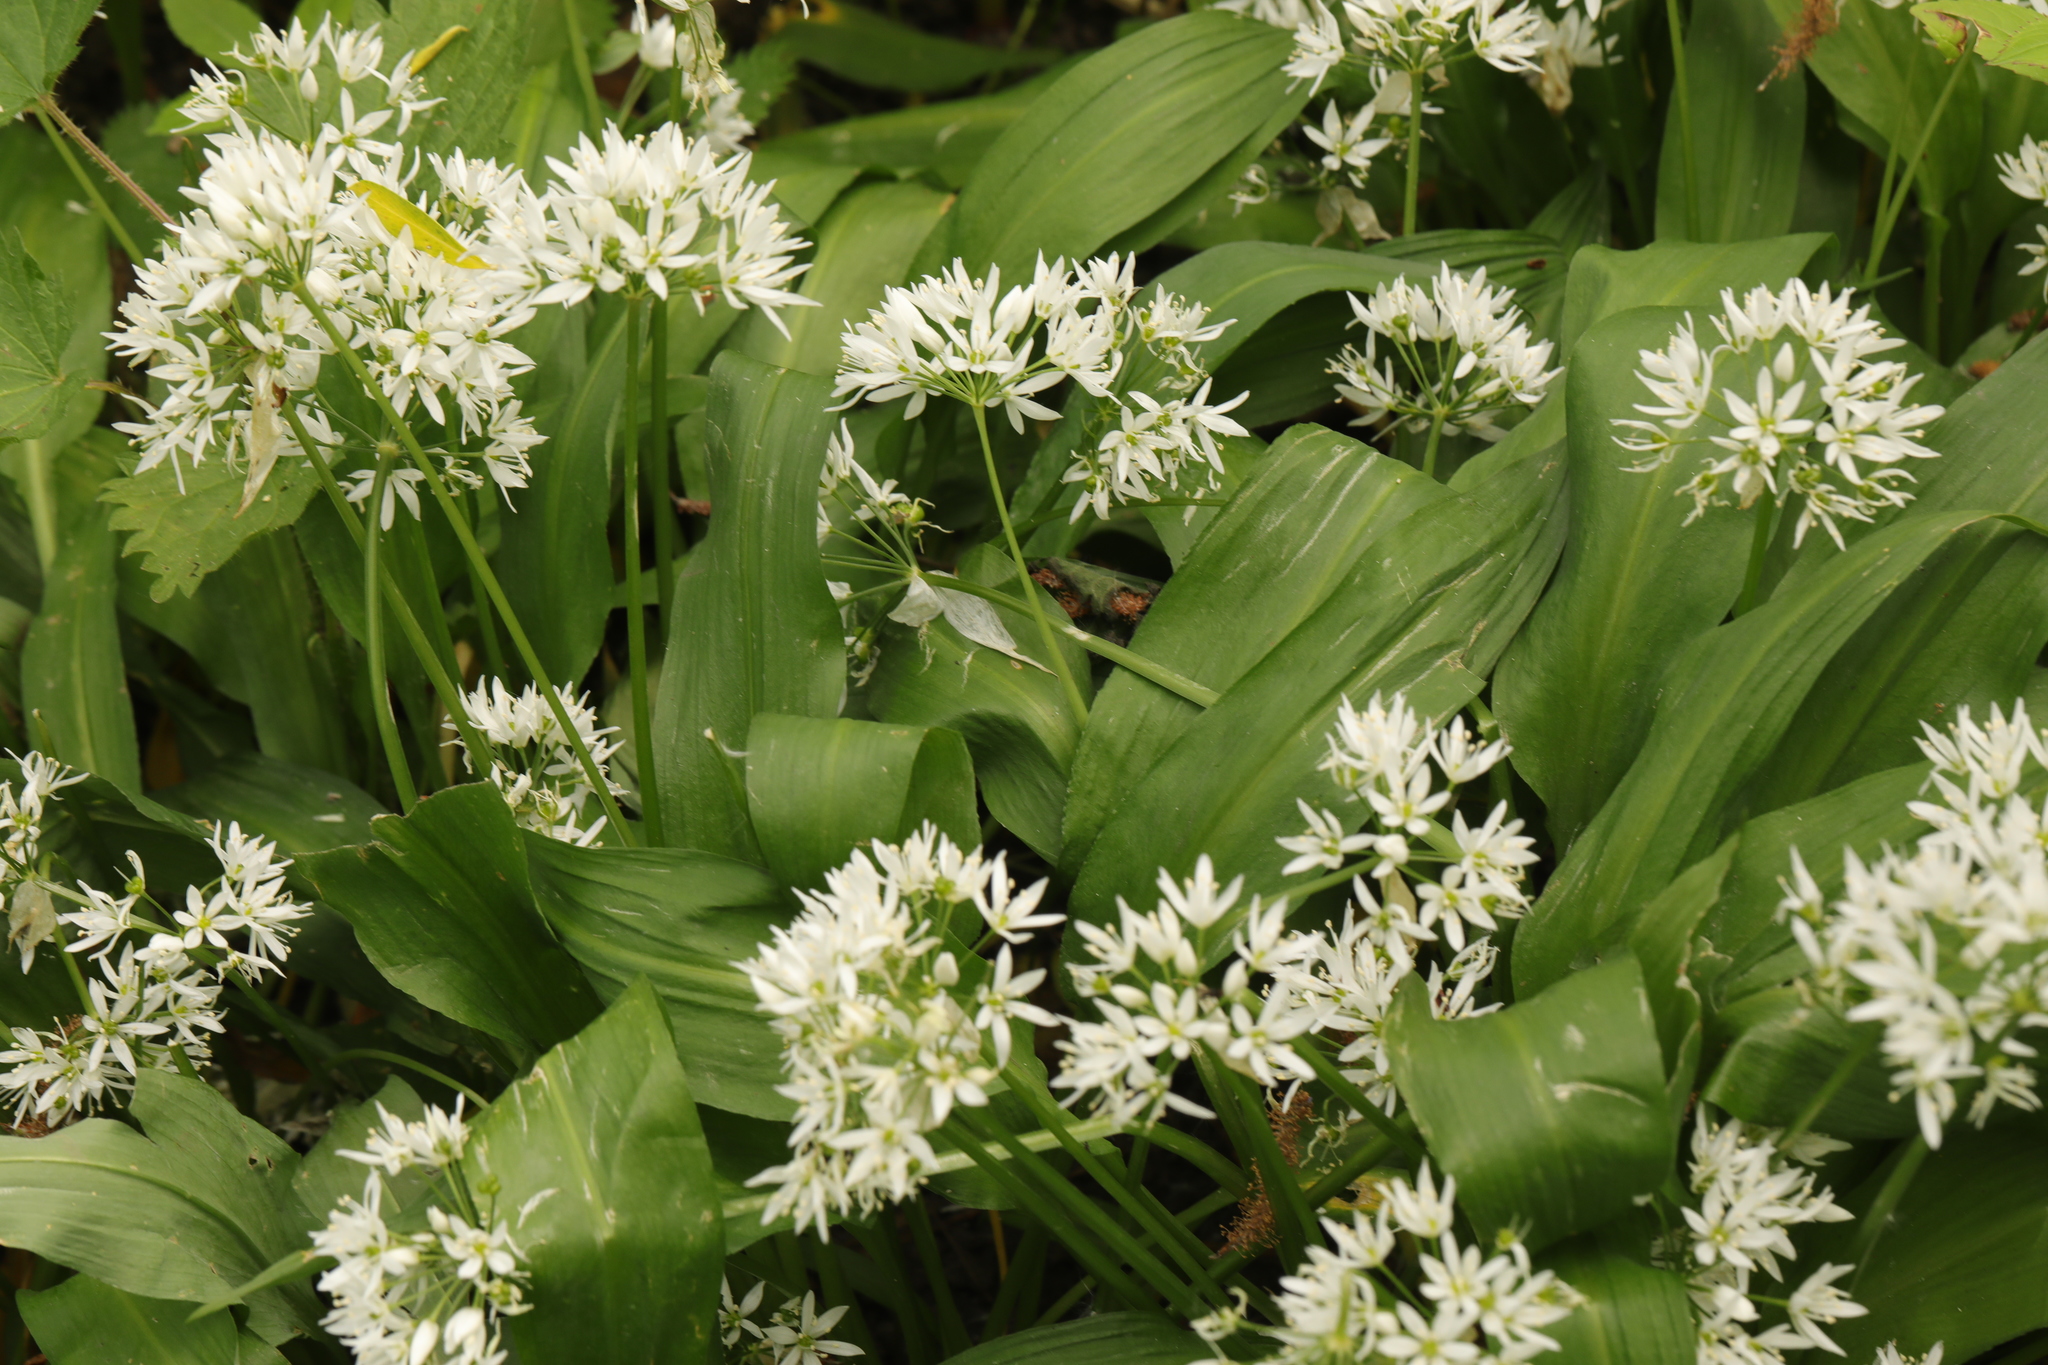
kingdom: Plantae
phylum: Tracheophyta
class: Liliopsida
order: Asparagales
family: Amaryllidaceae
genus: Allium
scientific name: Allium ursinum
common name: Ramsons
